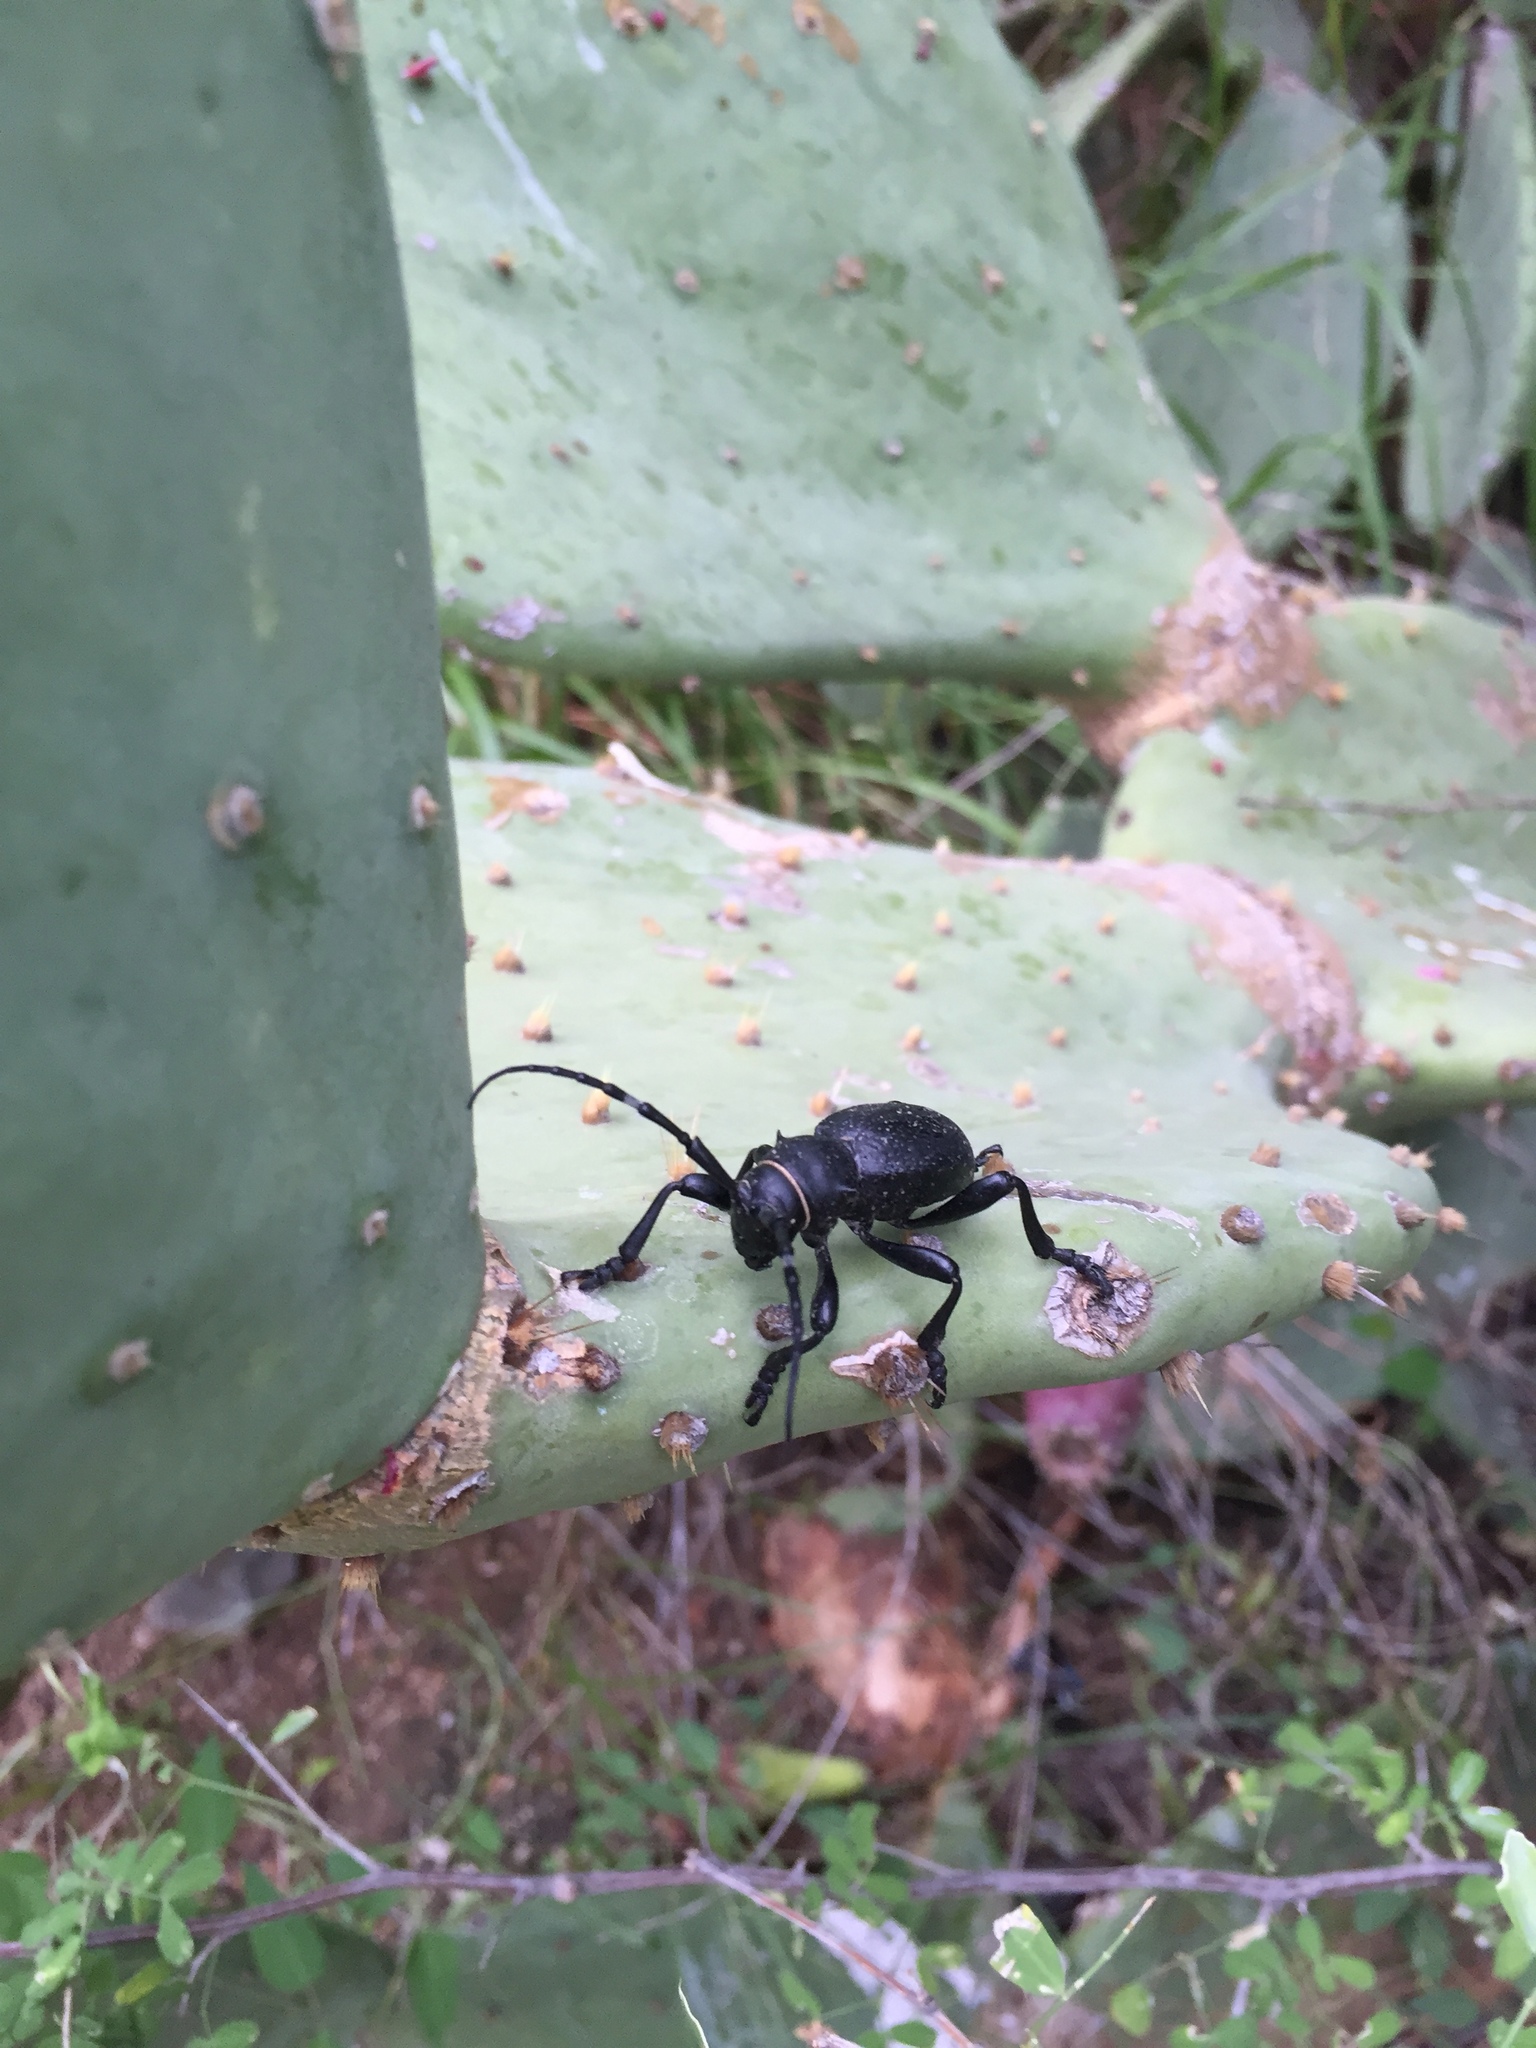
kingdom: Animalia
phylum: Arthropoda
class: Insecta
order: Coleoptera
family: Cerambycidae
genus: Moneilema
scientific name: Moneilema gigas
